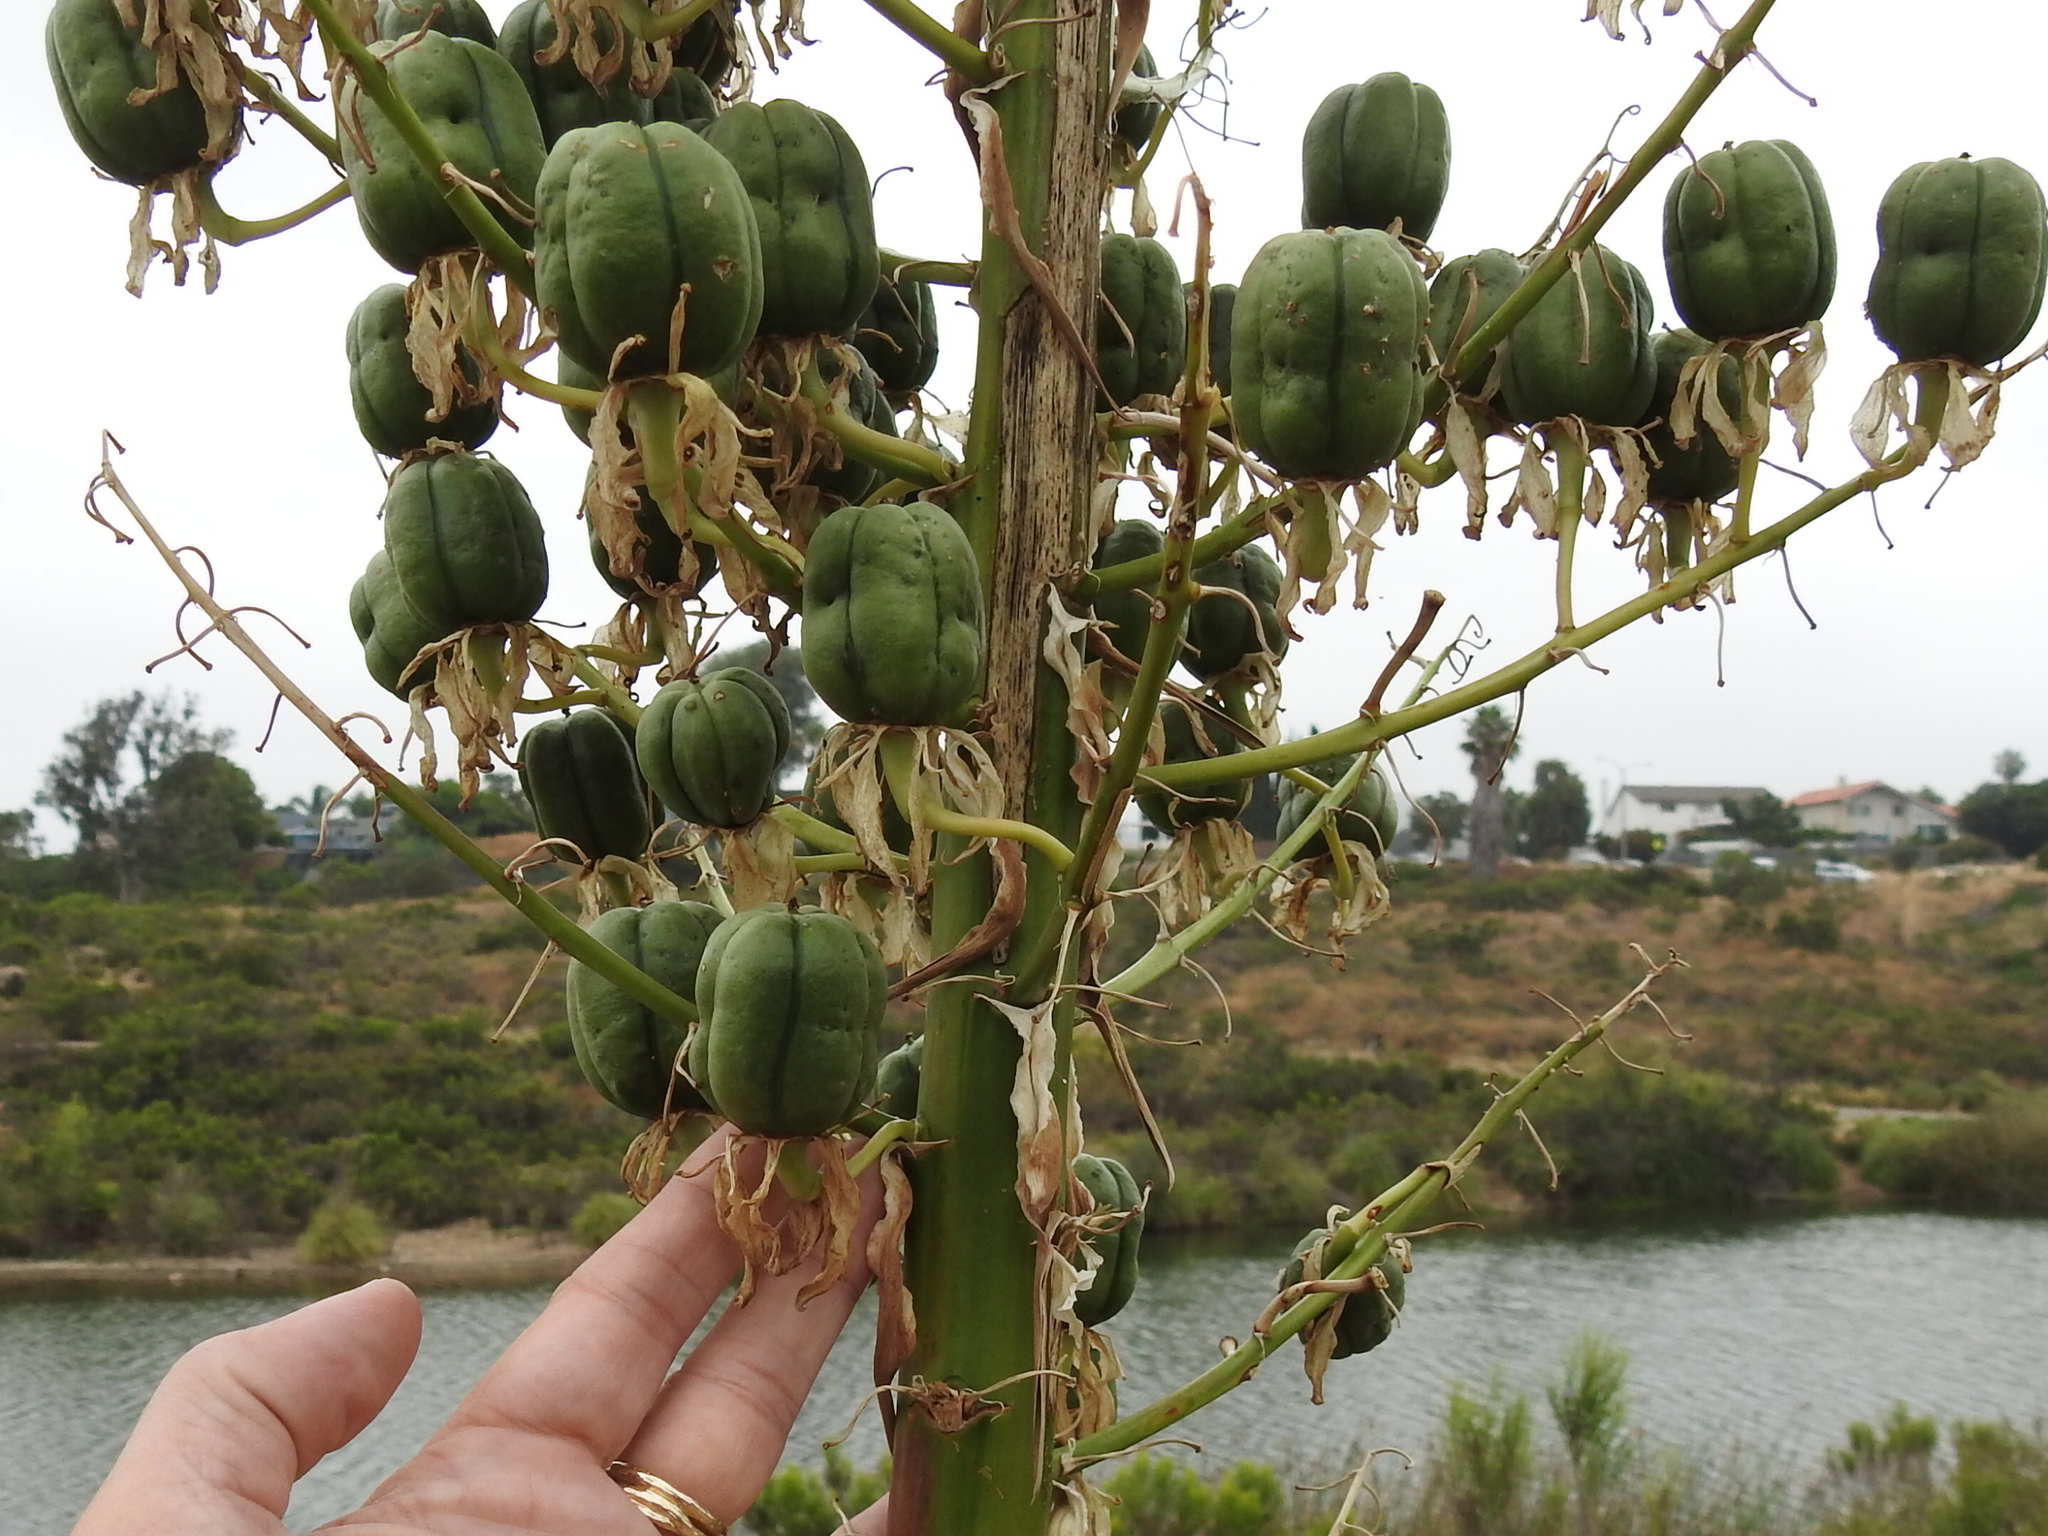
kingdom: Plantae
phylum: Tracheophyta
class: Liliopsida
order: Asparagales
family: Asparagaceae
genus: Hesperoyucca
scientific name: Hesperoyucca whipplei
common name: Our lord's-candle
